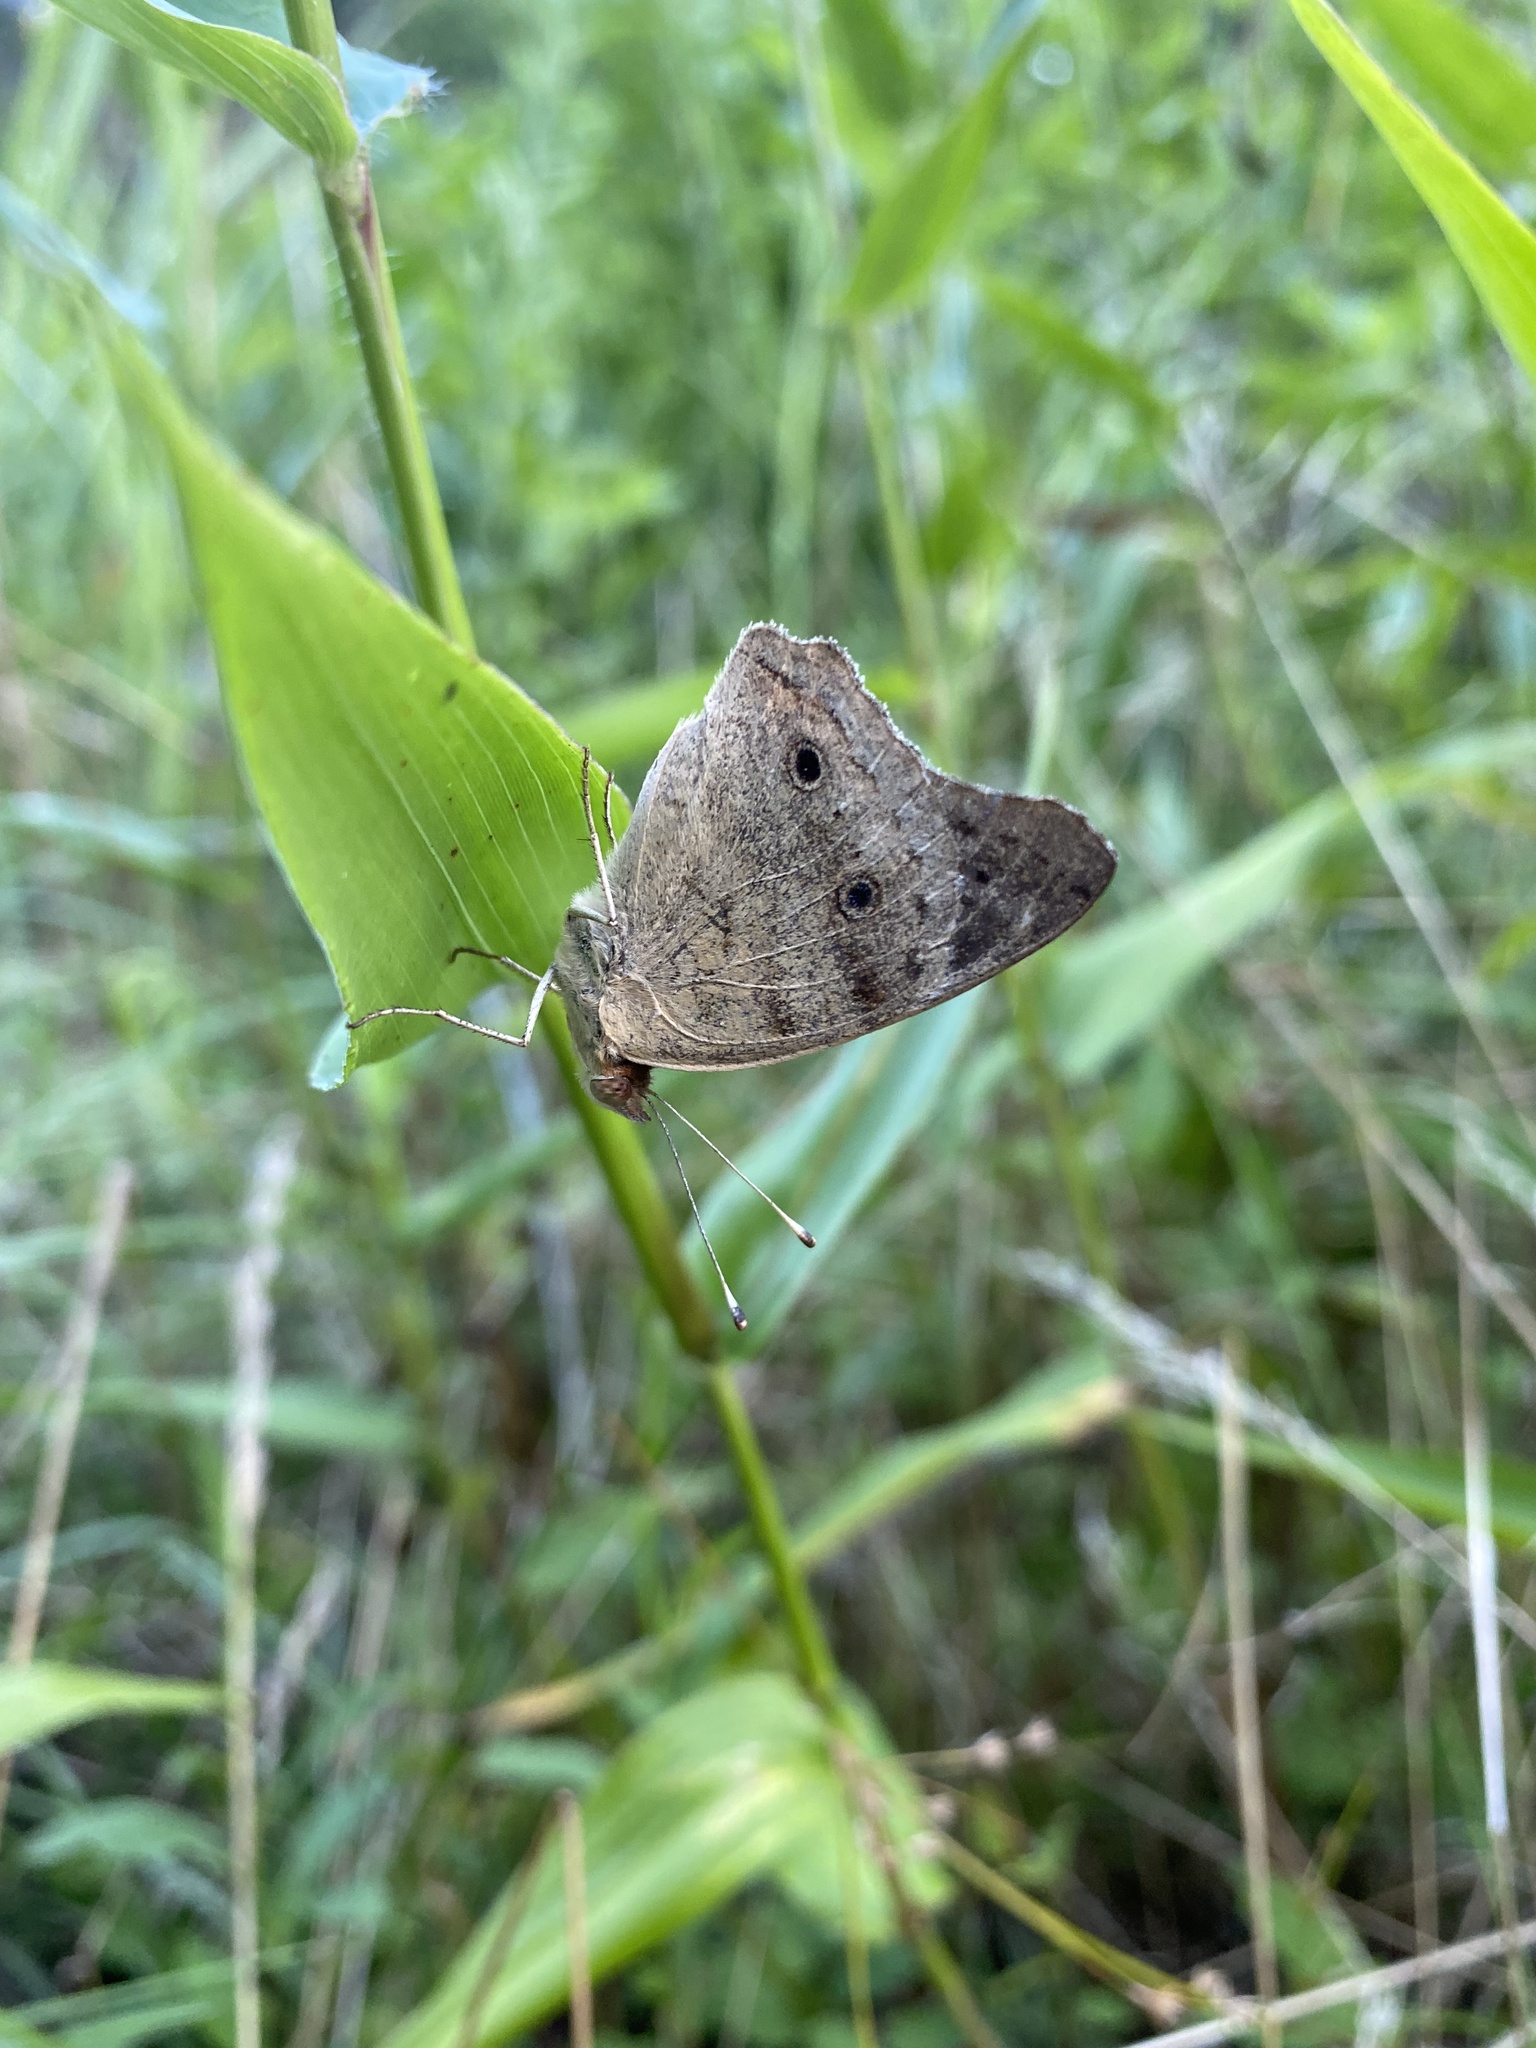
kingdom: Animalia
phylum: Arthropoda
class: Insecta
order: Lepidoptera
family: Nymphalidae
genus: Junonia
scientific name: Junonia coenia
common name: Common buckeye
